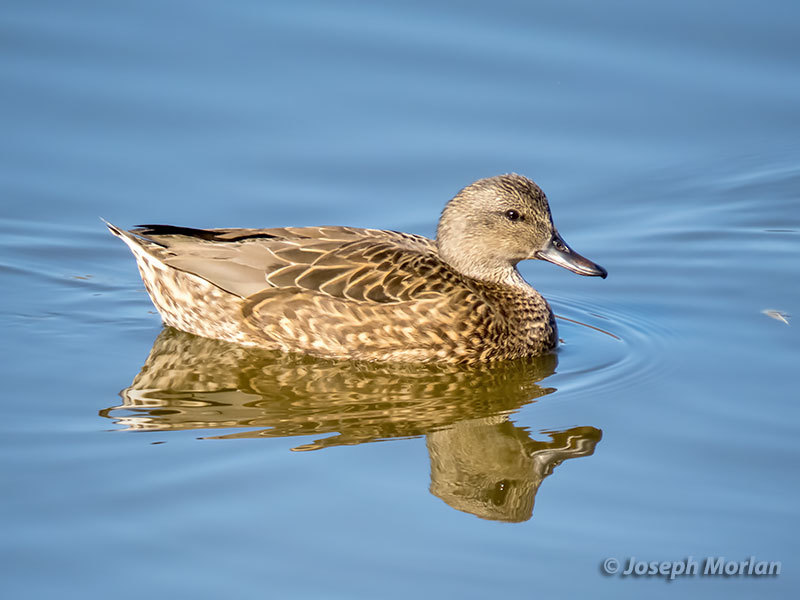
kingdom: Animalia
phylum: Chordata
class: Aves
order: Anseriformes
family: Anatidae
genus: Mareca
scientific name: Mareca strepera
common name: Gadwall
